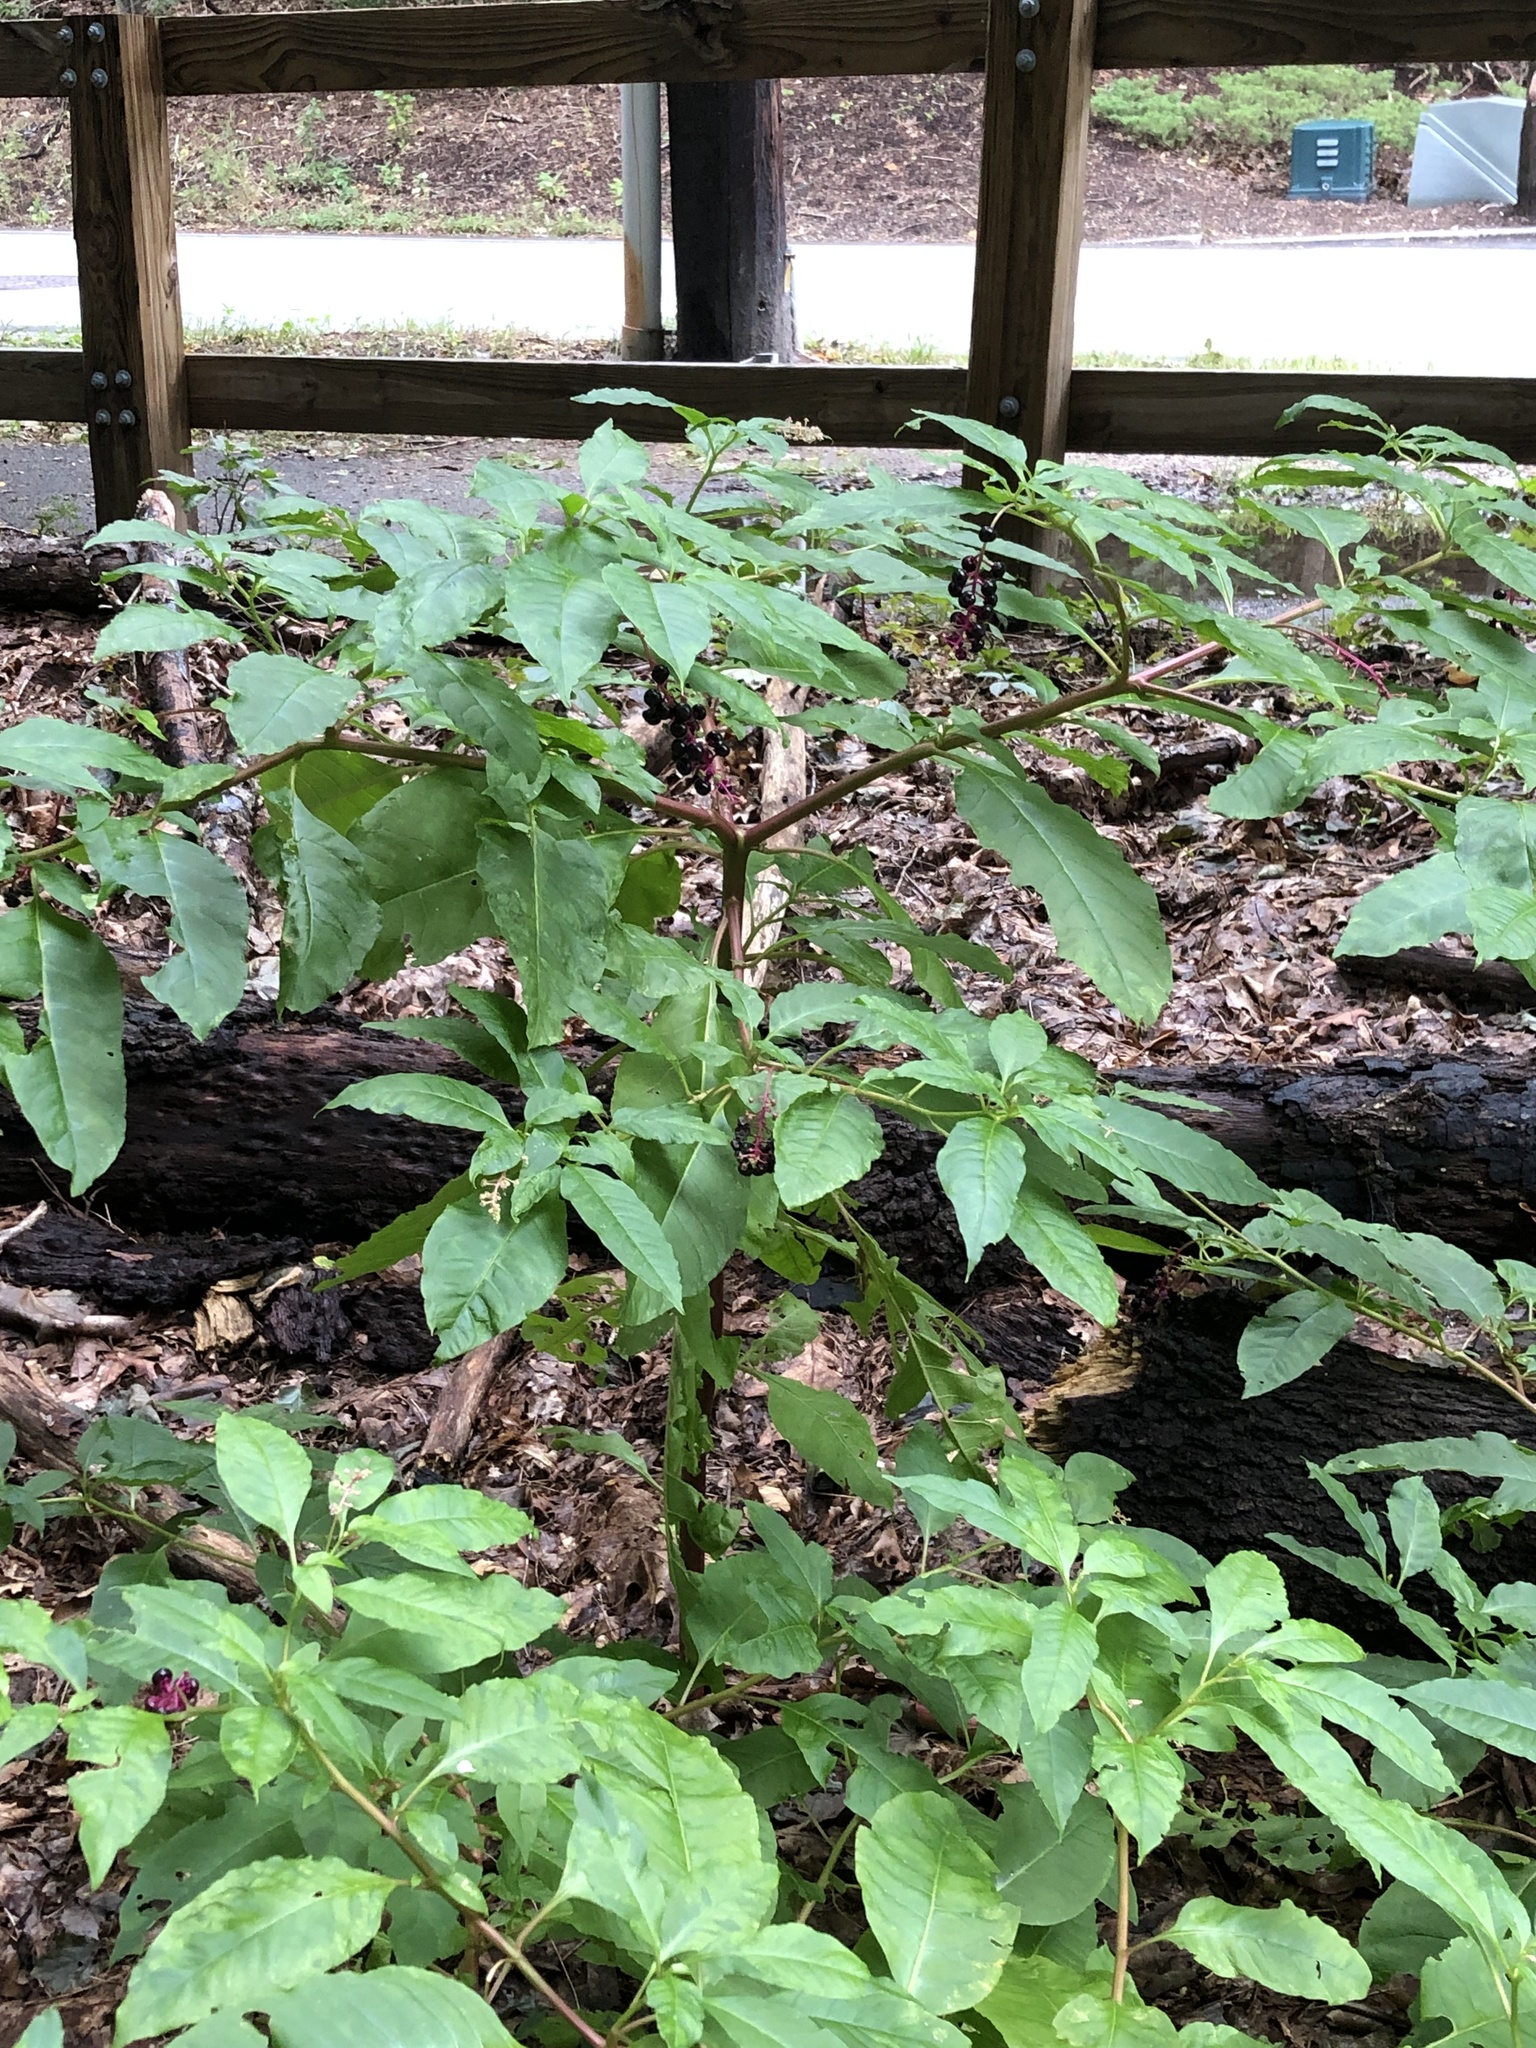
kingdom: Plantae
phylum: Tracheophyta
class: Magnoliopsida
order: Caryophyllales
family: Phytolaccaceae
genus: Phytolacca
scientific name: Phytolacca americana
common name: American pokeweed
